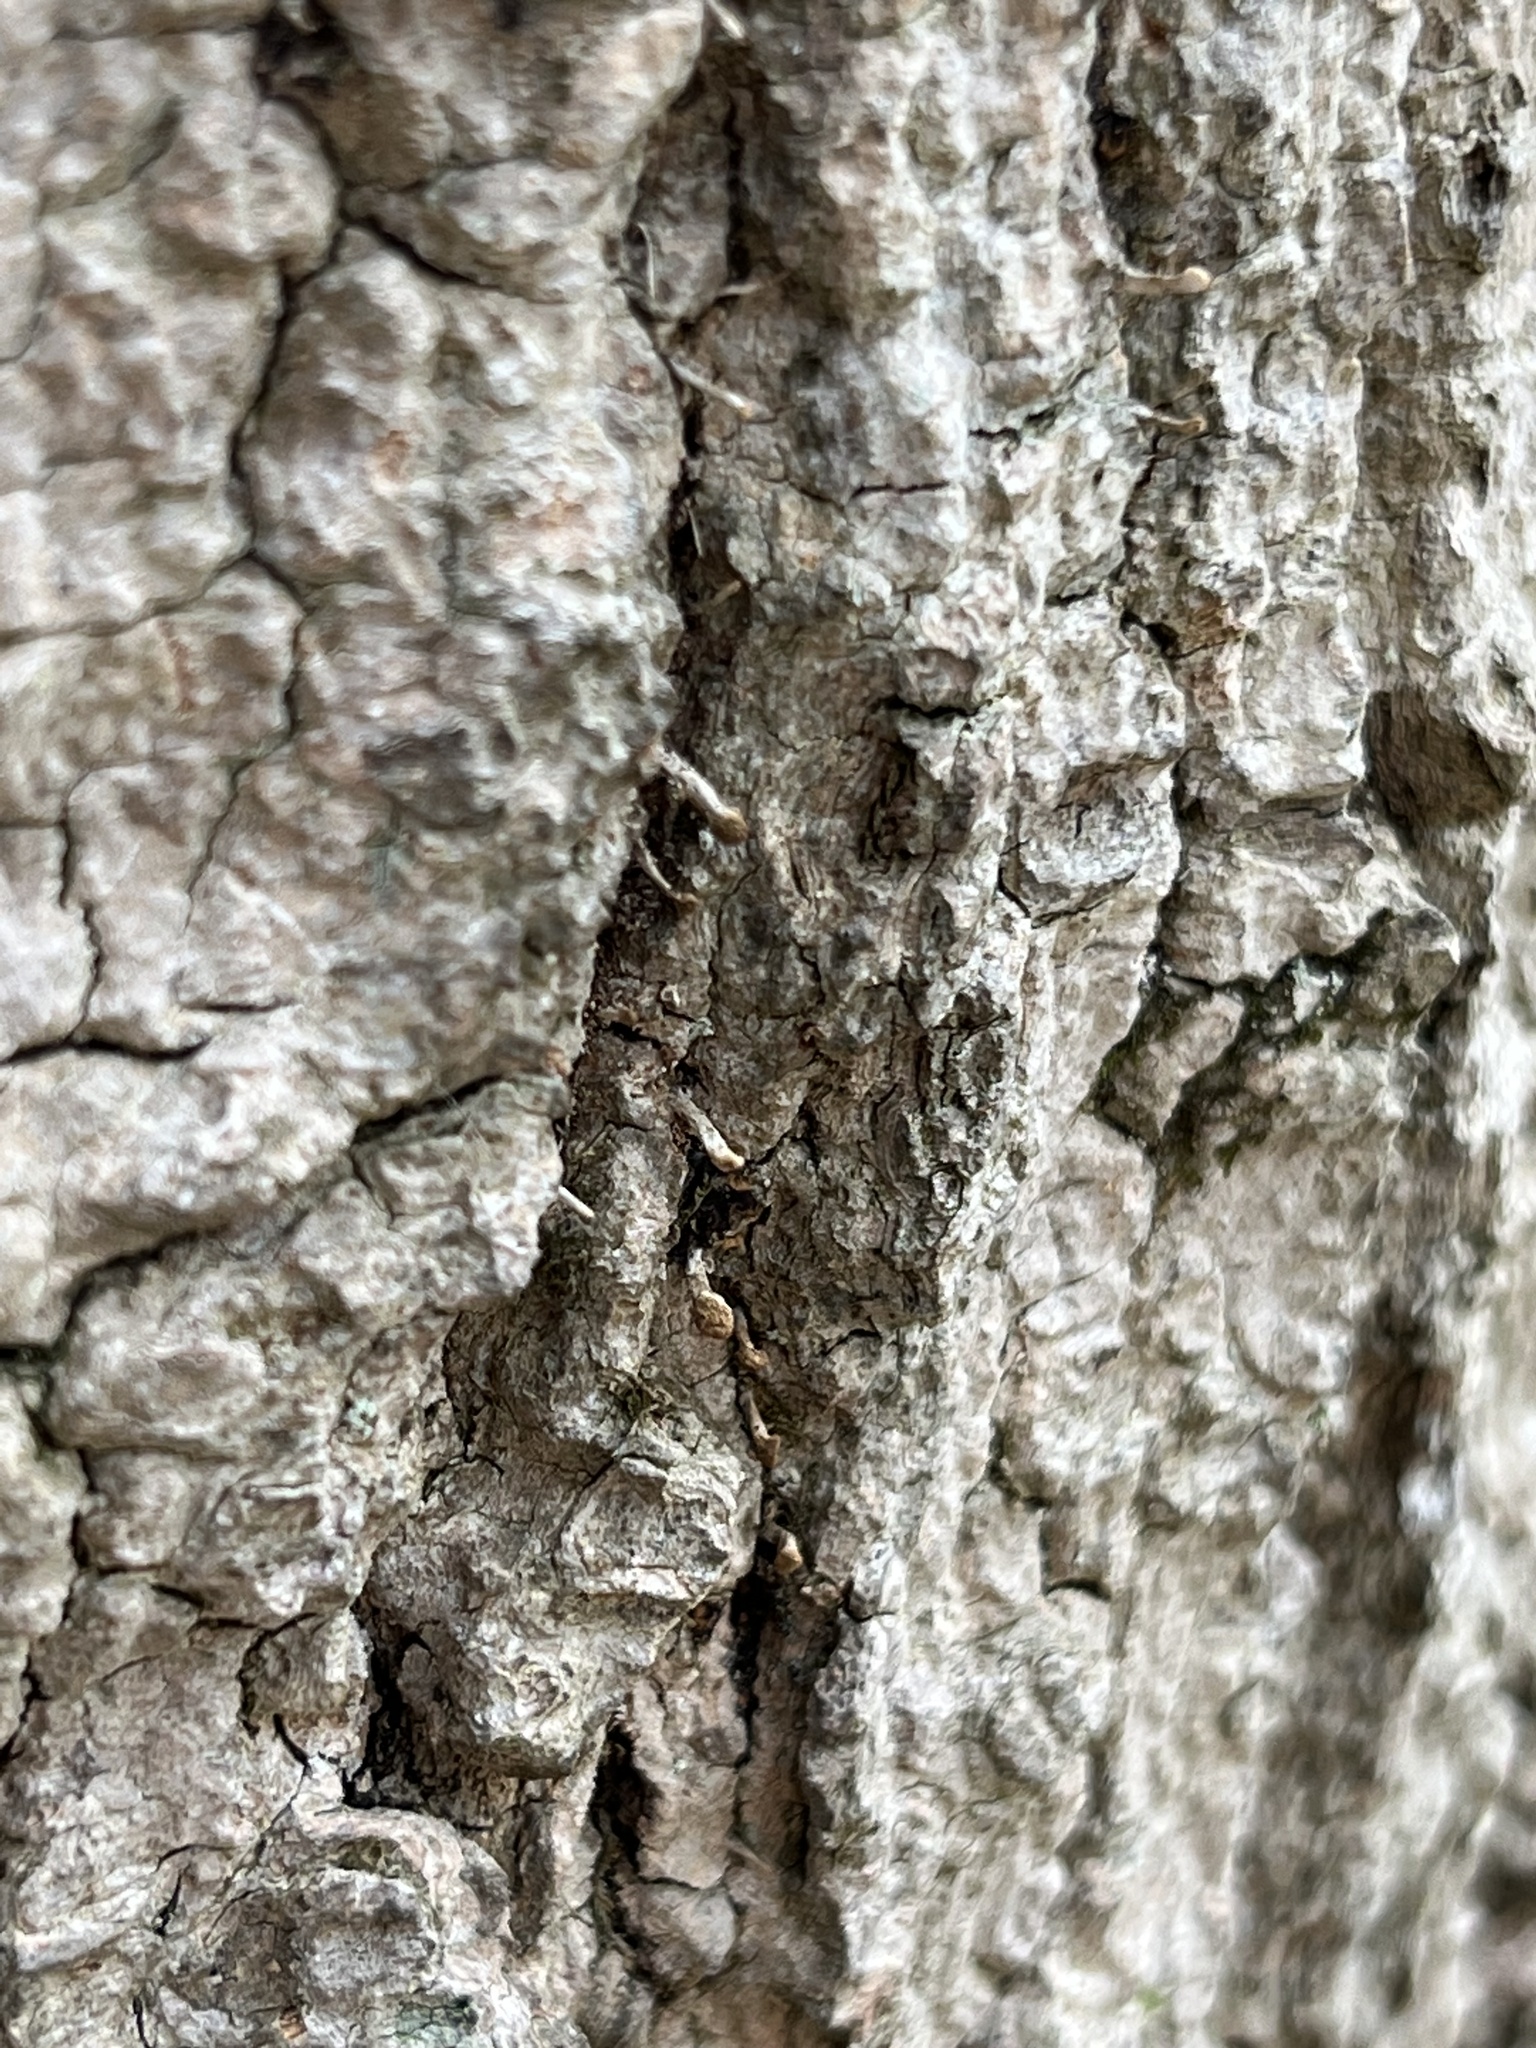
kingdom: Fungi
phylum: Basidiomycota
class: Atractiellomycetes
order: Atractiellales
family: Phleogenaceae
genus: Phleogena
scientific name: Phleogena faginea
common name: Fenugreek stalkball
